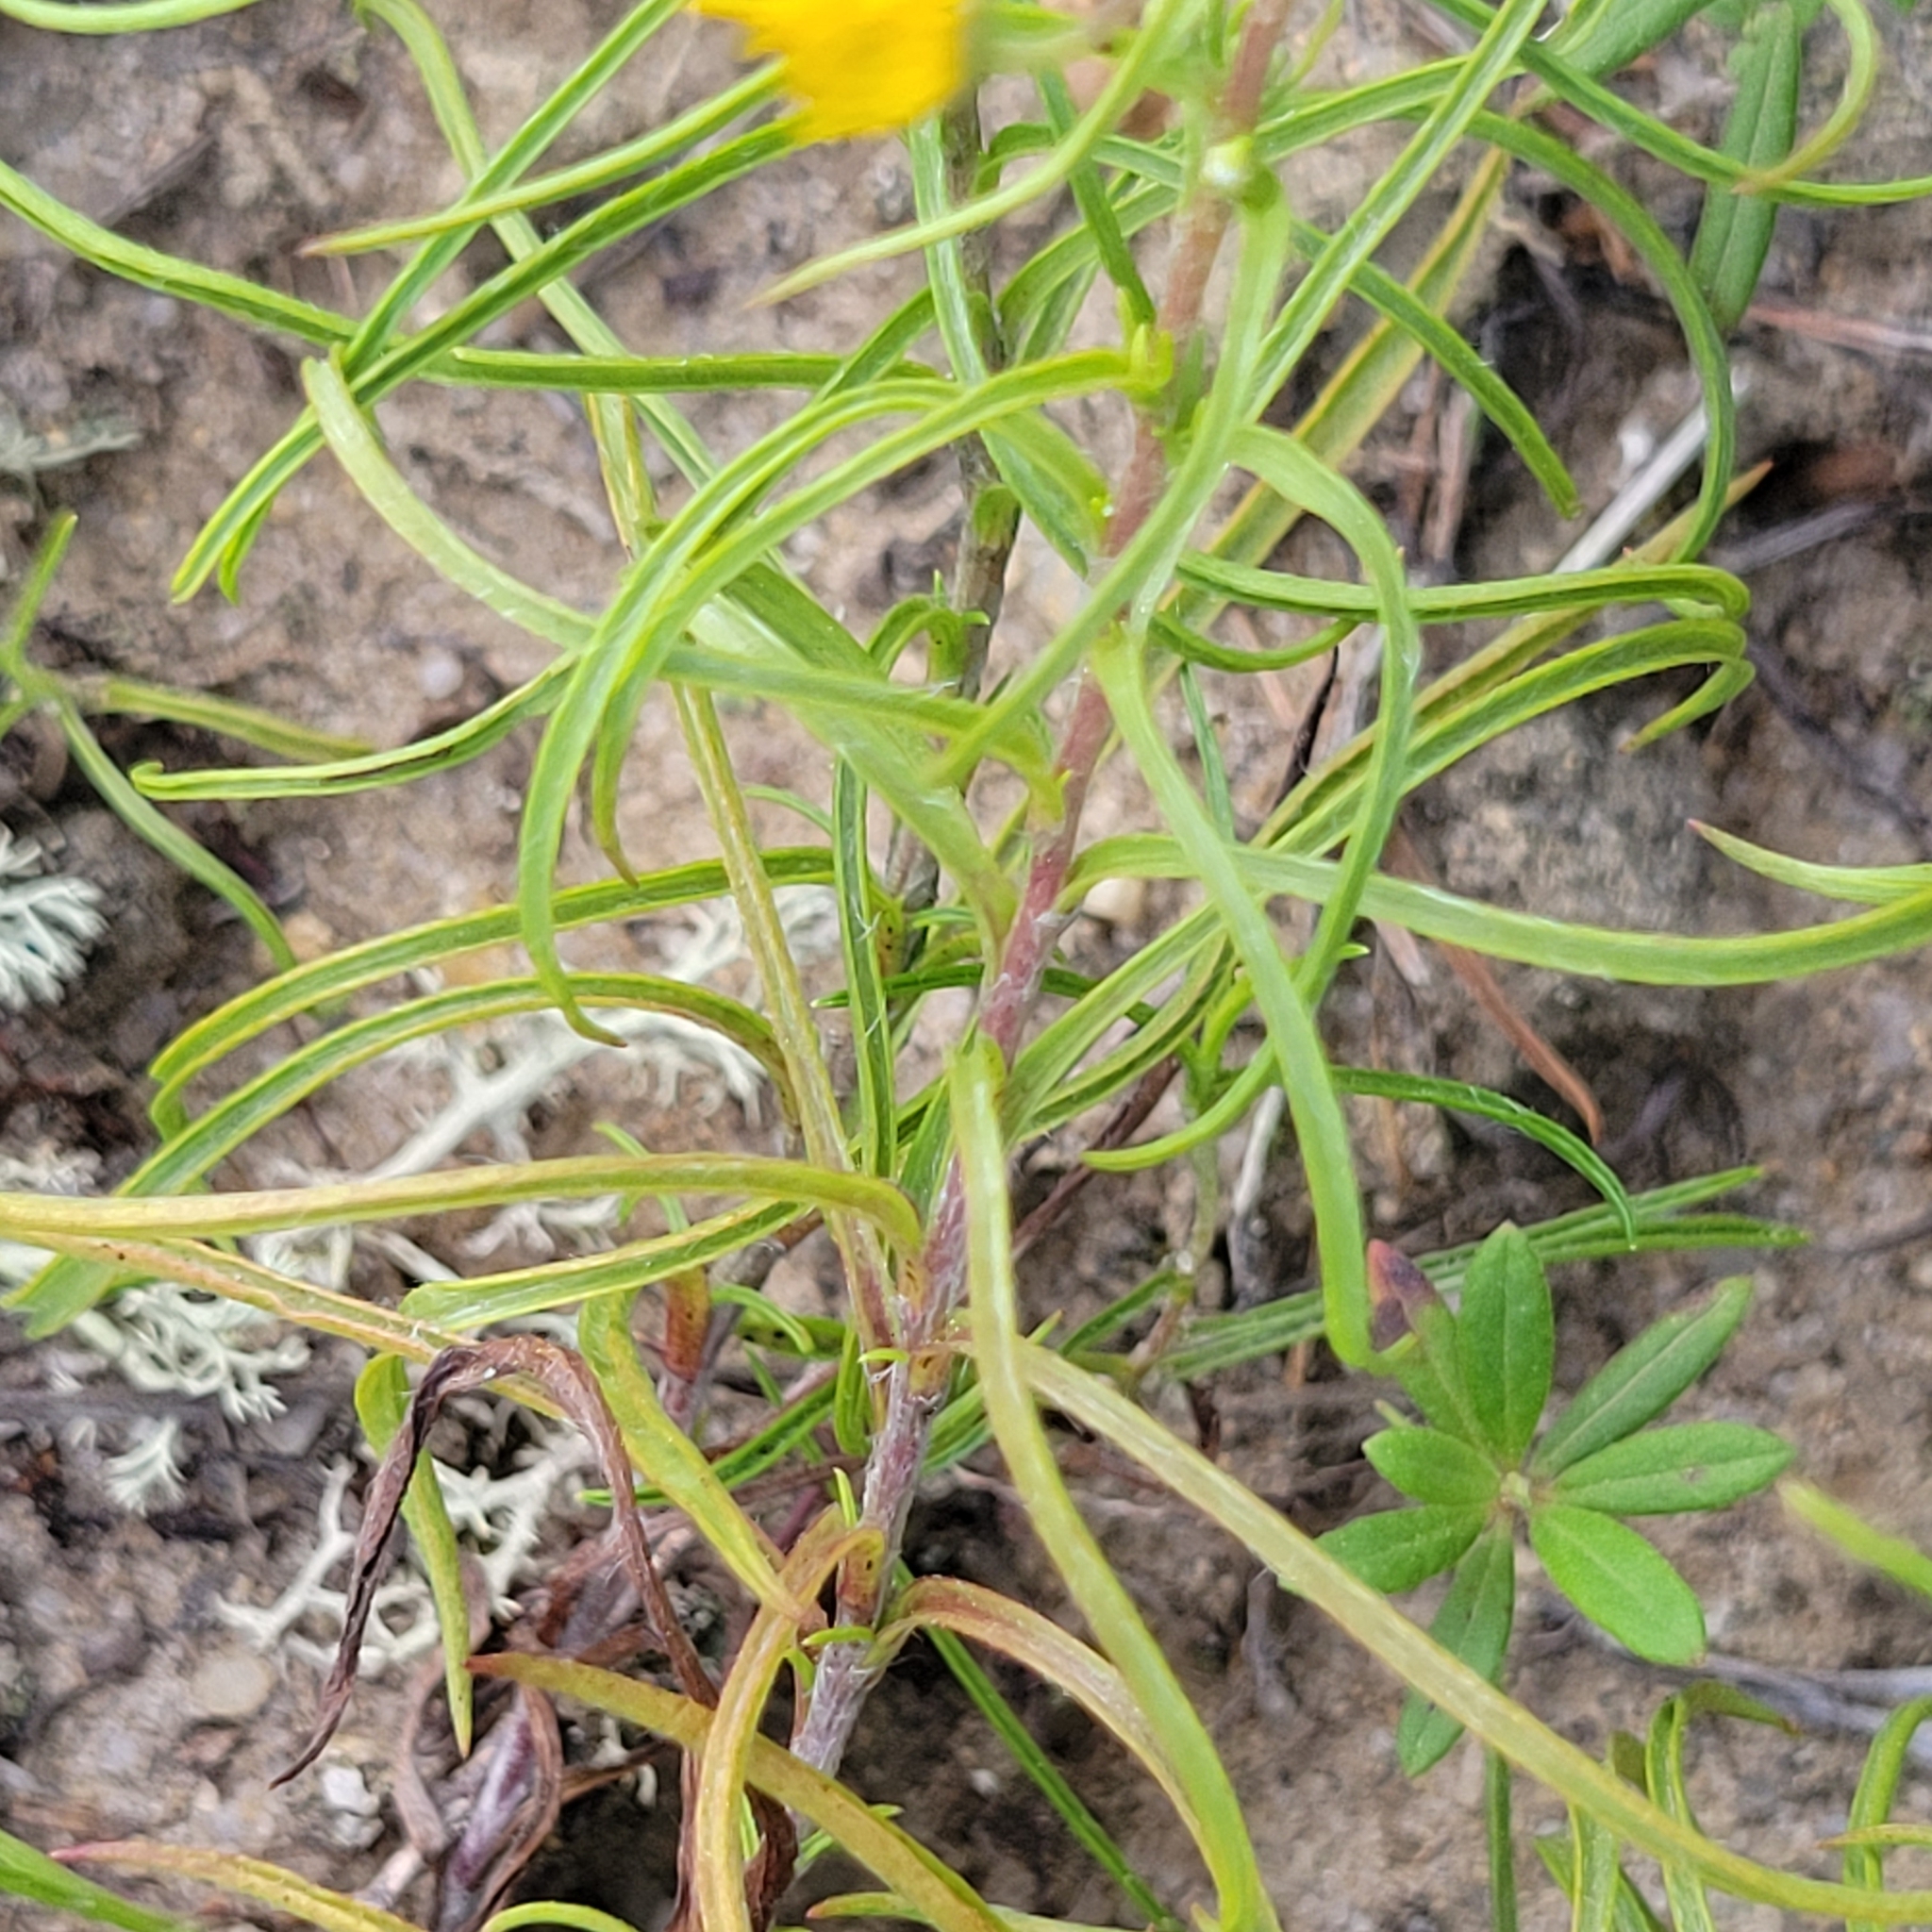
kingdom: Plantae
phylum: Tracheophyta
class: Magnoliopsida
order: Asterales
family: Asteraceae
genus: Pityopsis
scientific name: Pityopsis falcata
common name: Sickle-leaved goldenaster
